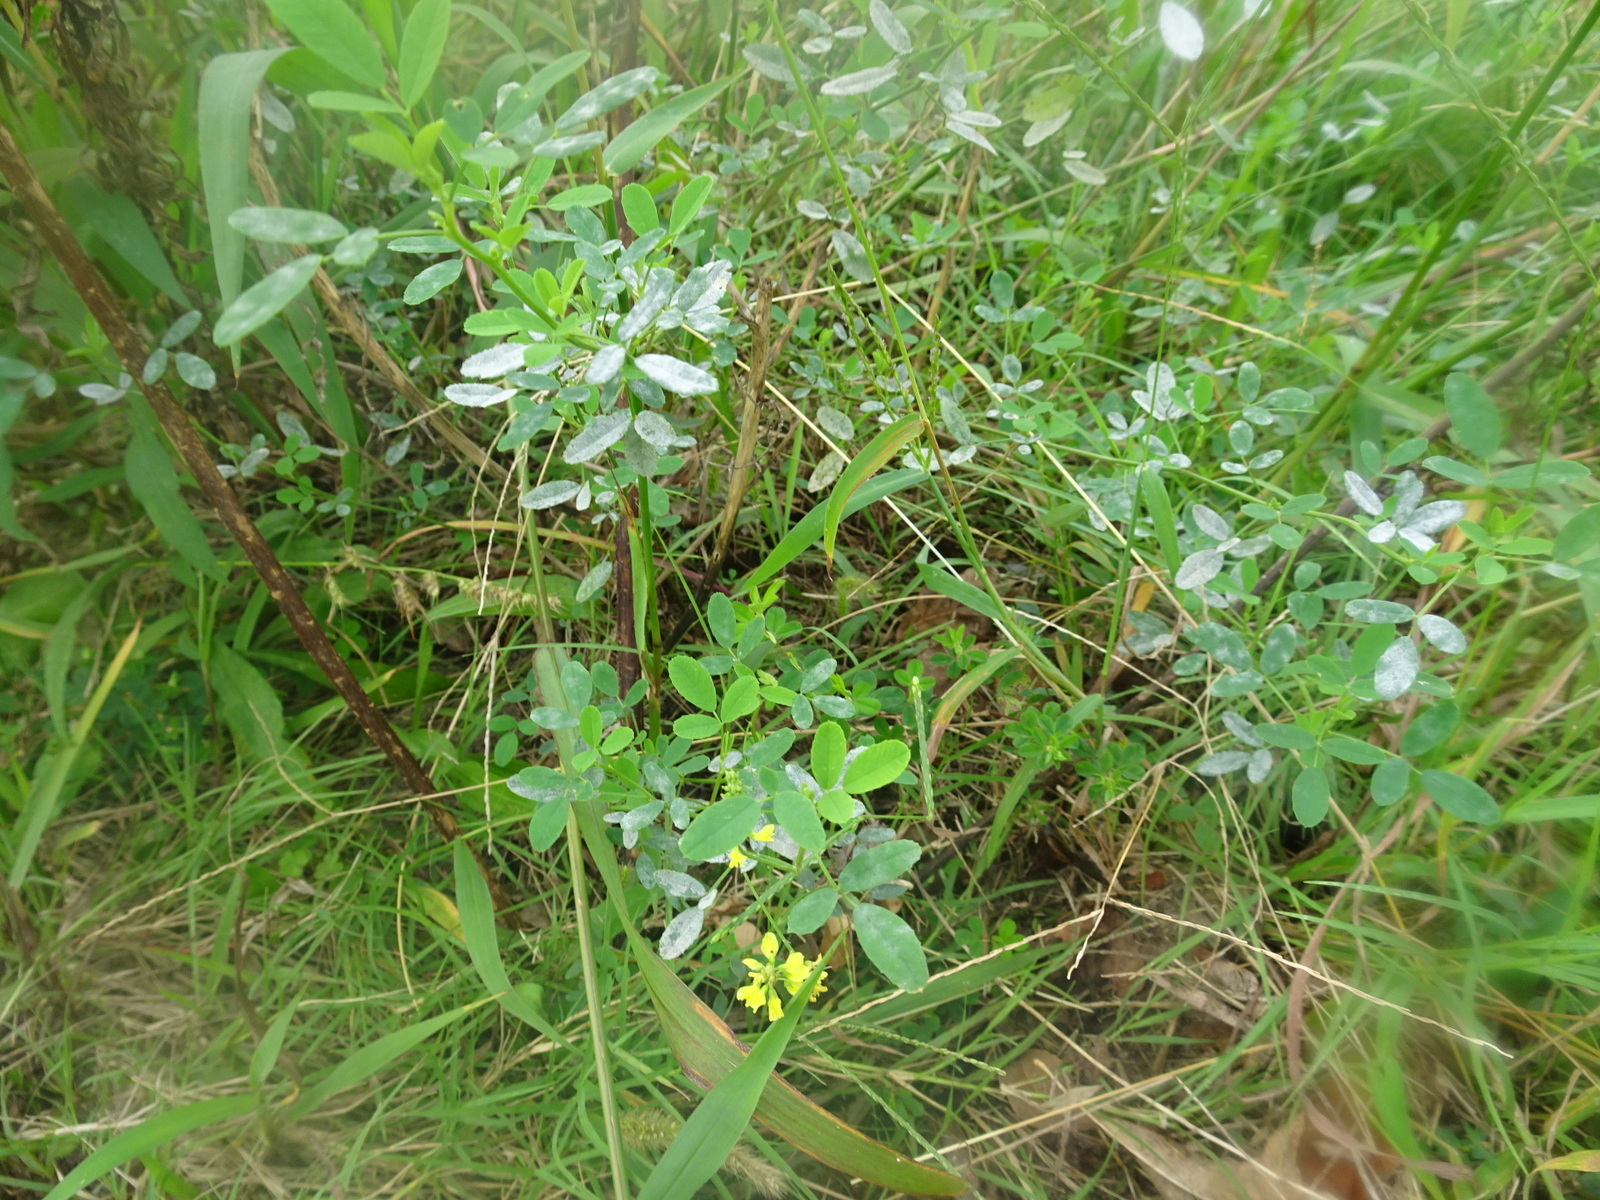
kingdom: Plantae
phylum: Tracheophyta
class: Magnoliopsida
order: Fabales
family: Fabaceae
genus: Melilotus
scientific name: Melilotus officinalis
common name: Sweetclover
